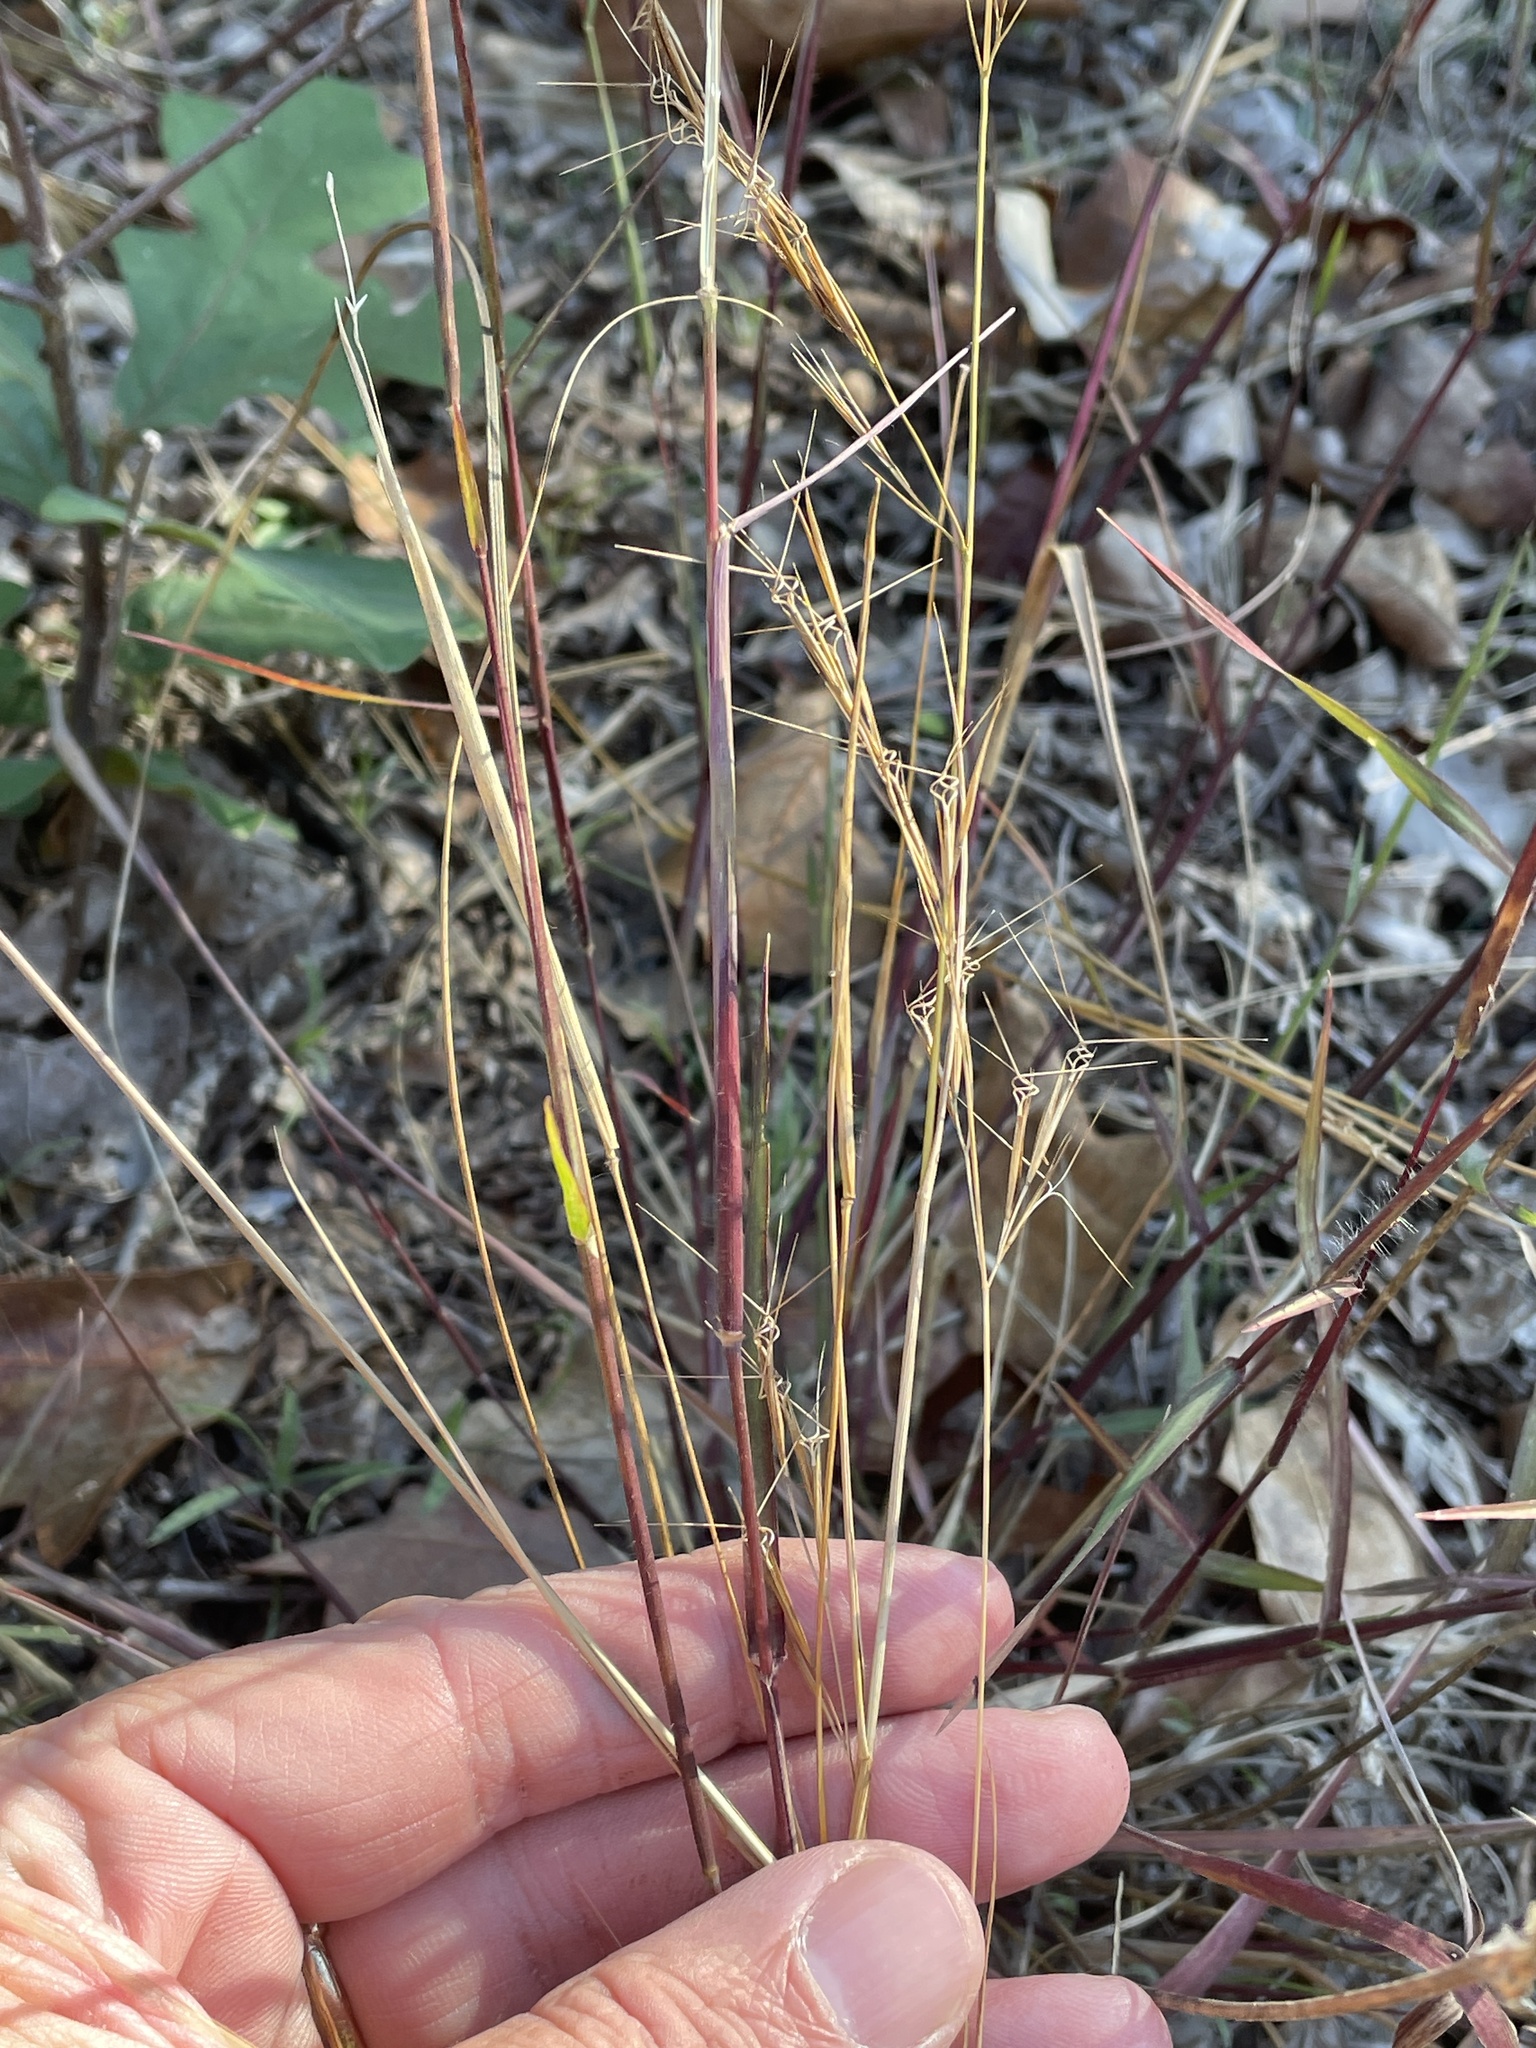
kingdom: Plantae
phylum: Tracheophyta
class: Liliopsida
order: Poales
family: Poaceae
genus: Aristida
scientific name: Aristida desmantha
